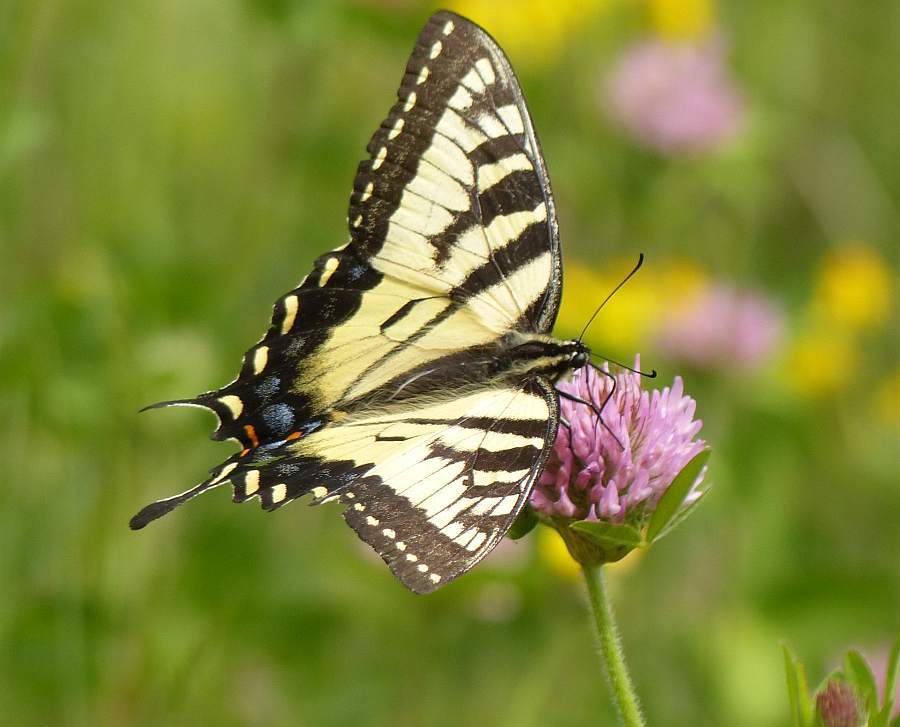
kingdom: Animalia
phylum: Arthropoda
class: Insecta
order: Lepidoptera
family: Papilionidae
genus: Papilio
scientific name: Papilio canadensis
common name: Canadian tiger swallowtail
